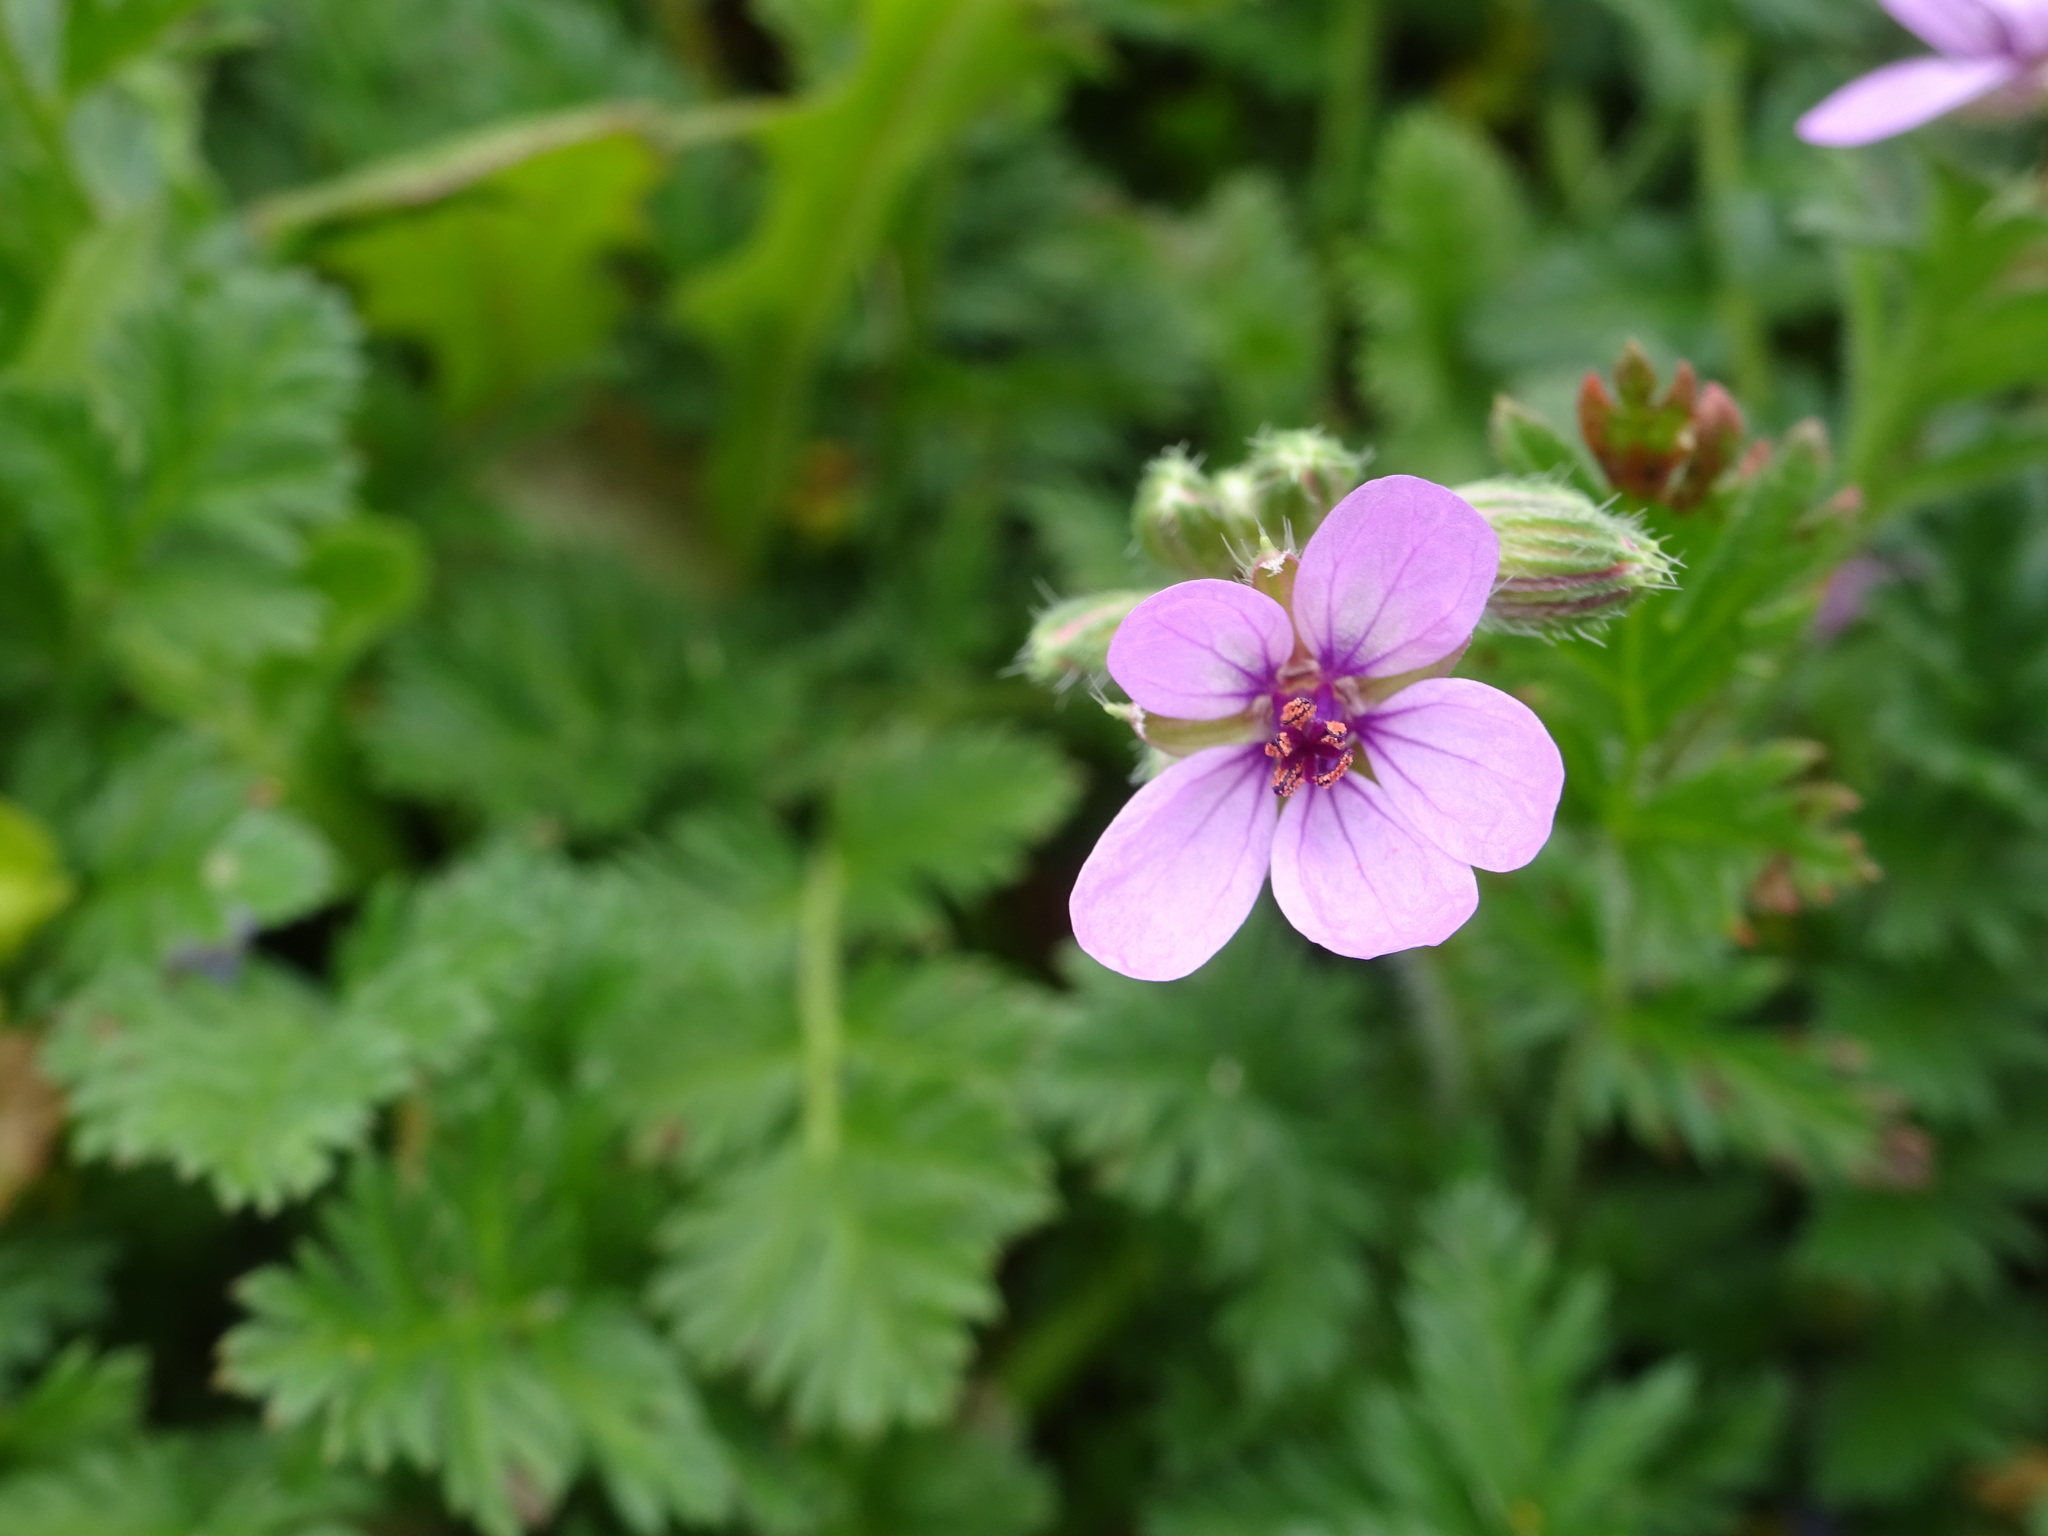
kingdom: Plantae
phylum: Tracheophyta
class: Magnoliopsida
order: Geraniales
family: Geraniaceae
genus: Erodium
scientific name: Erodium cicutarium
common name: Common stork's-bill
